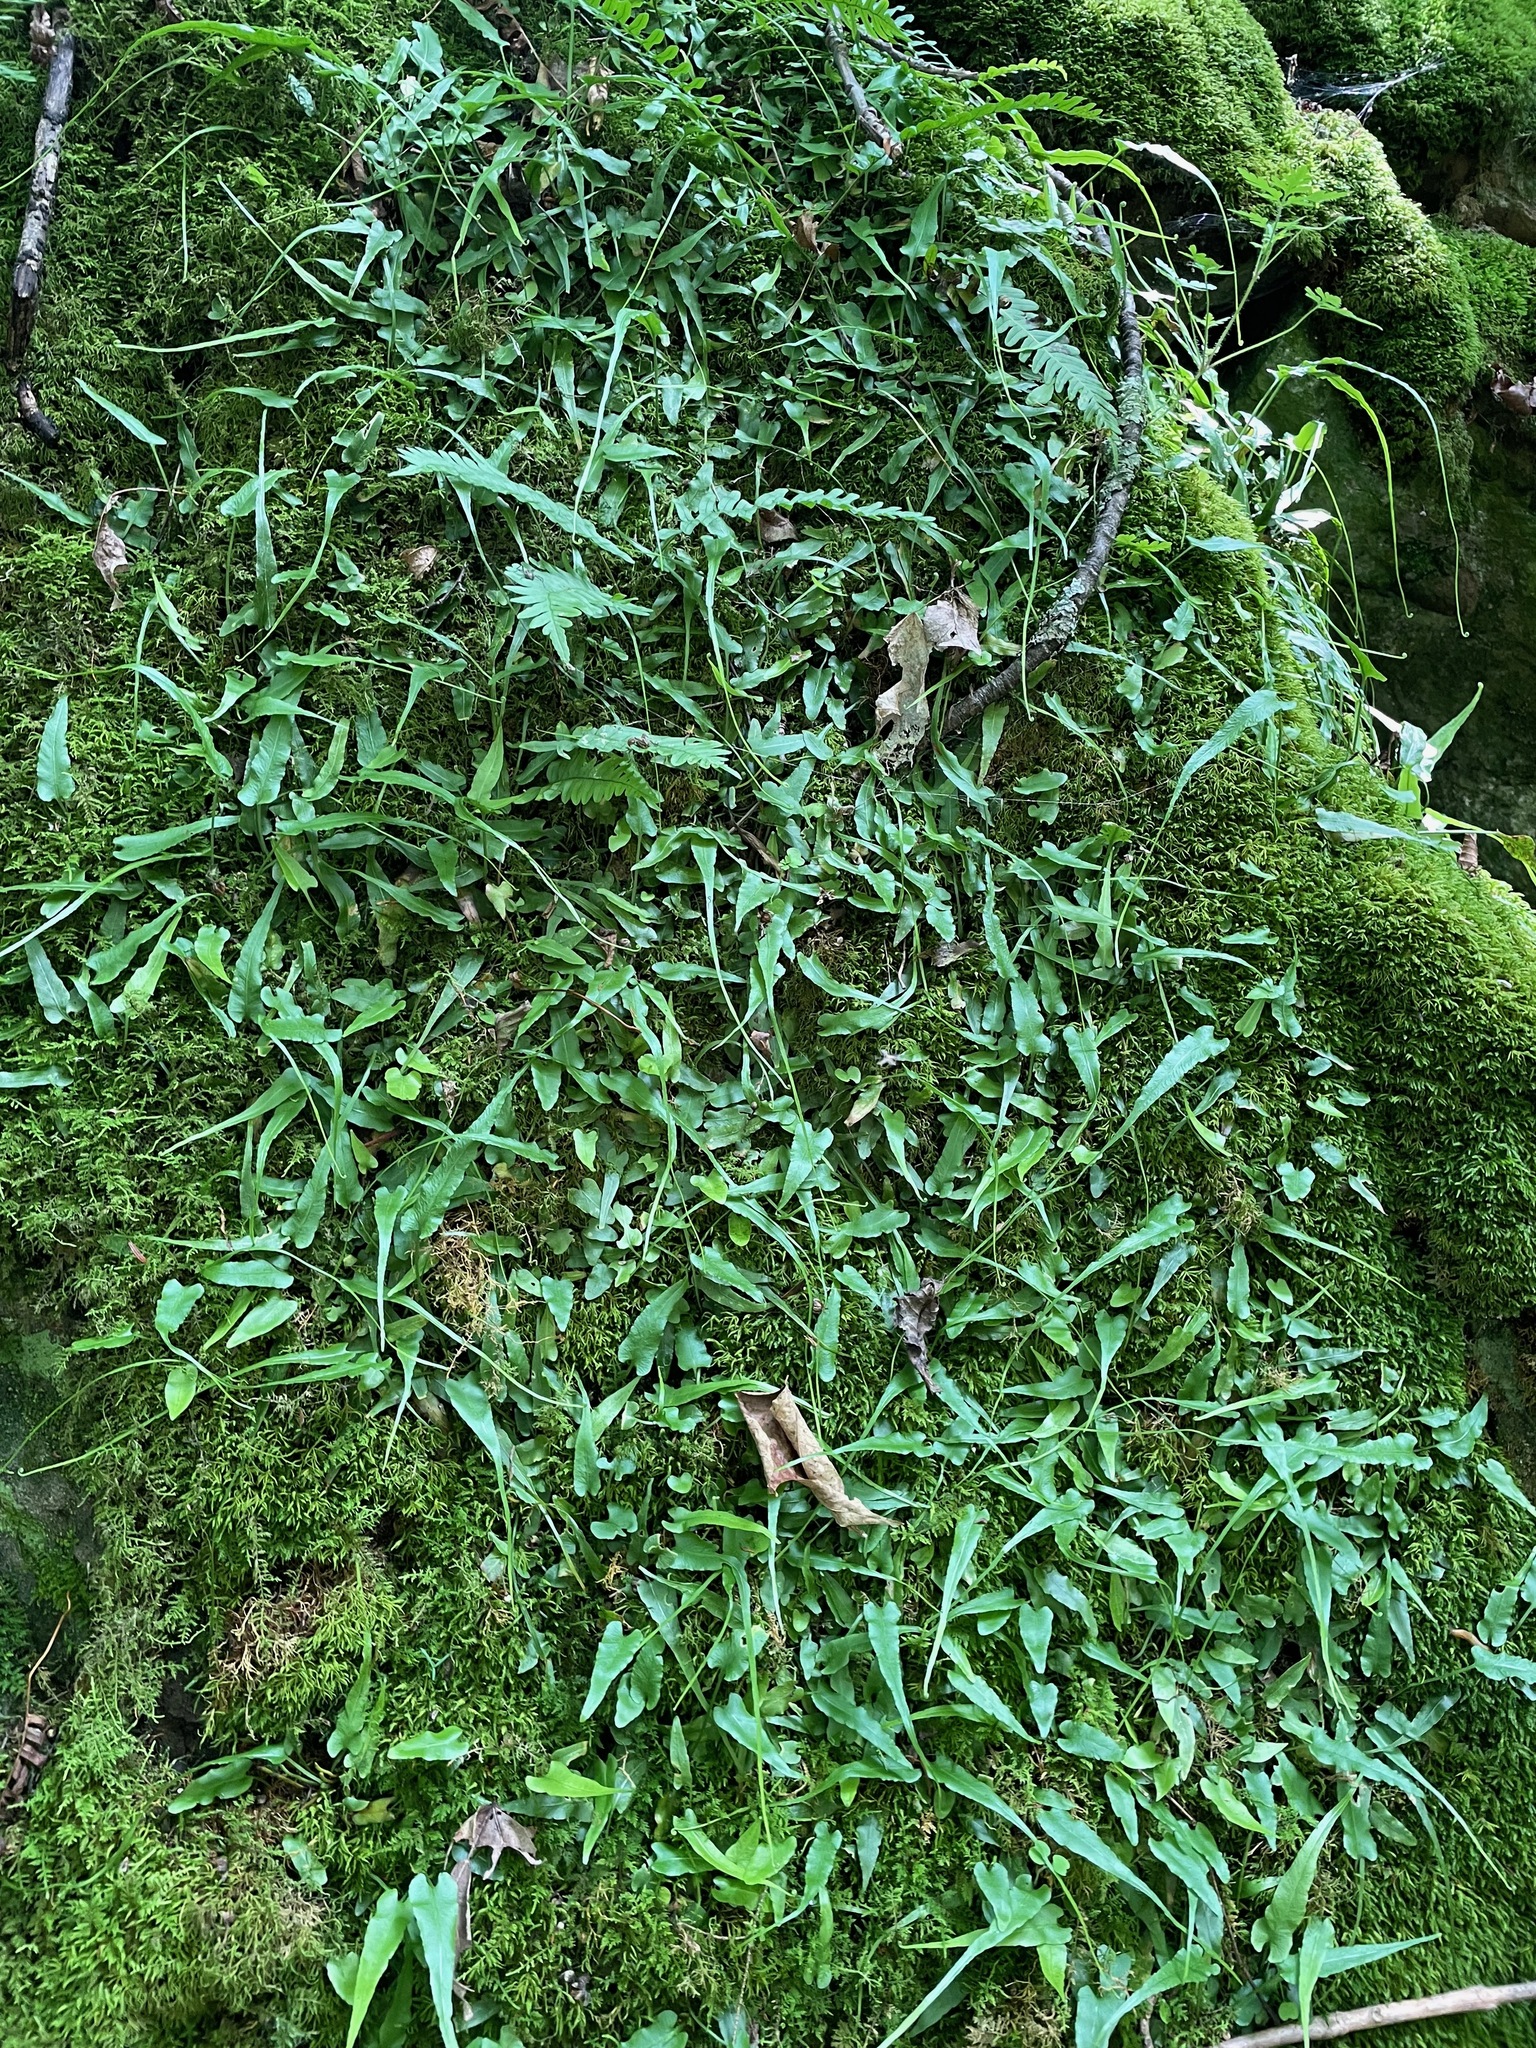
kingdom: Plantae
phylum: Tracheophyta
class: Polypodiopsida
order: Polypodiales
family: Aspleniaceae
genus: Asplenium
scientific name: Asplenium rhizophyllum
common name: Walking fern
